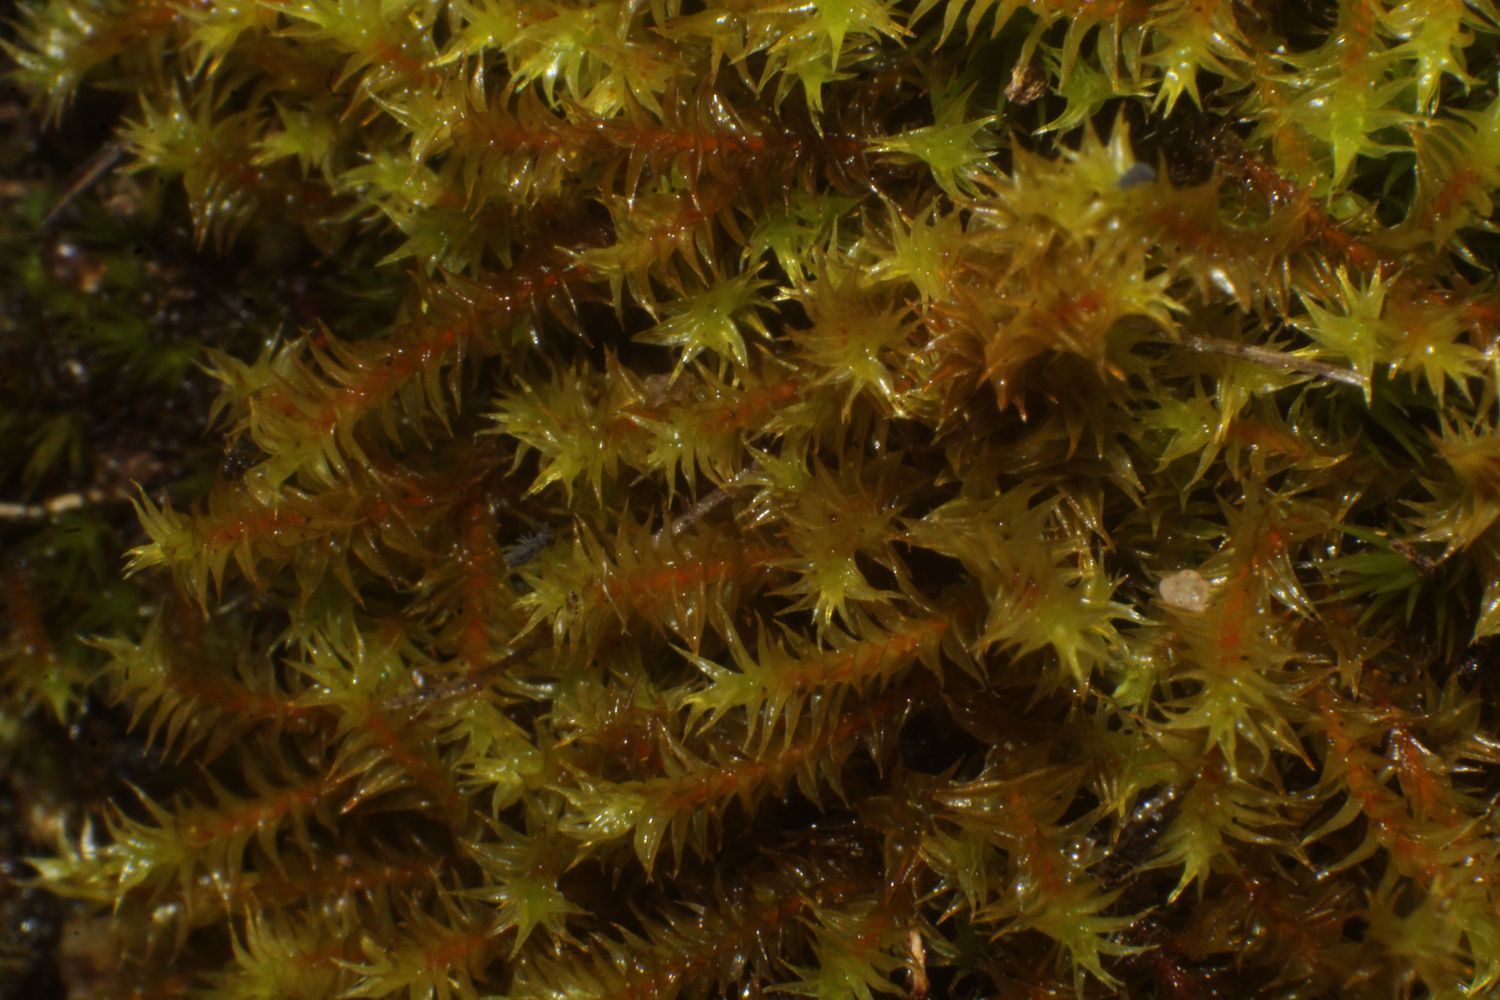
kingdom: Plantae
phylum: Bryophyta
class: Bryopsida
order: Pottiales
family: Pottiaceae
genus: Triquetrella
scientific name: Triquetrella papillata
